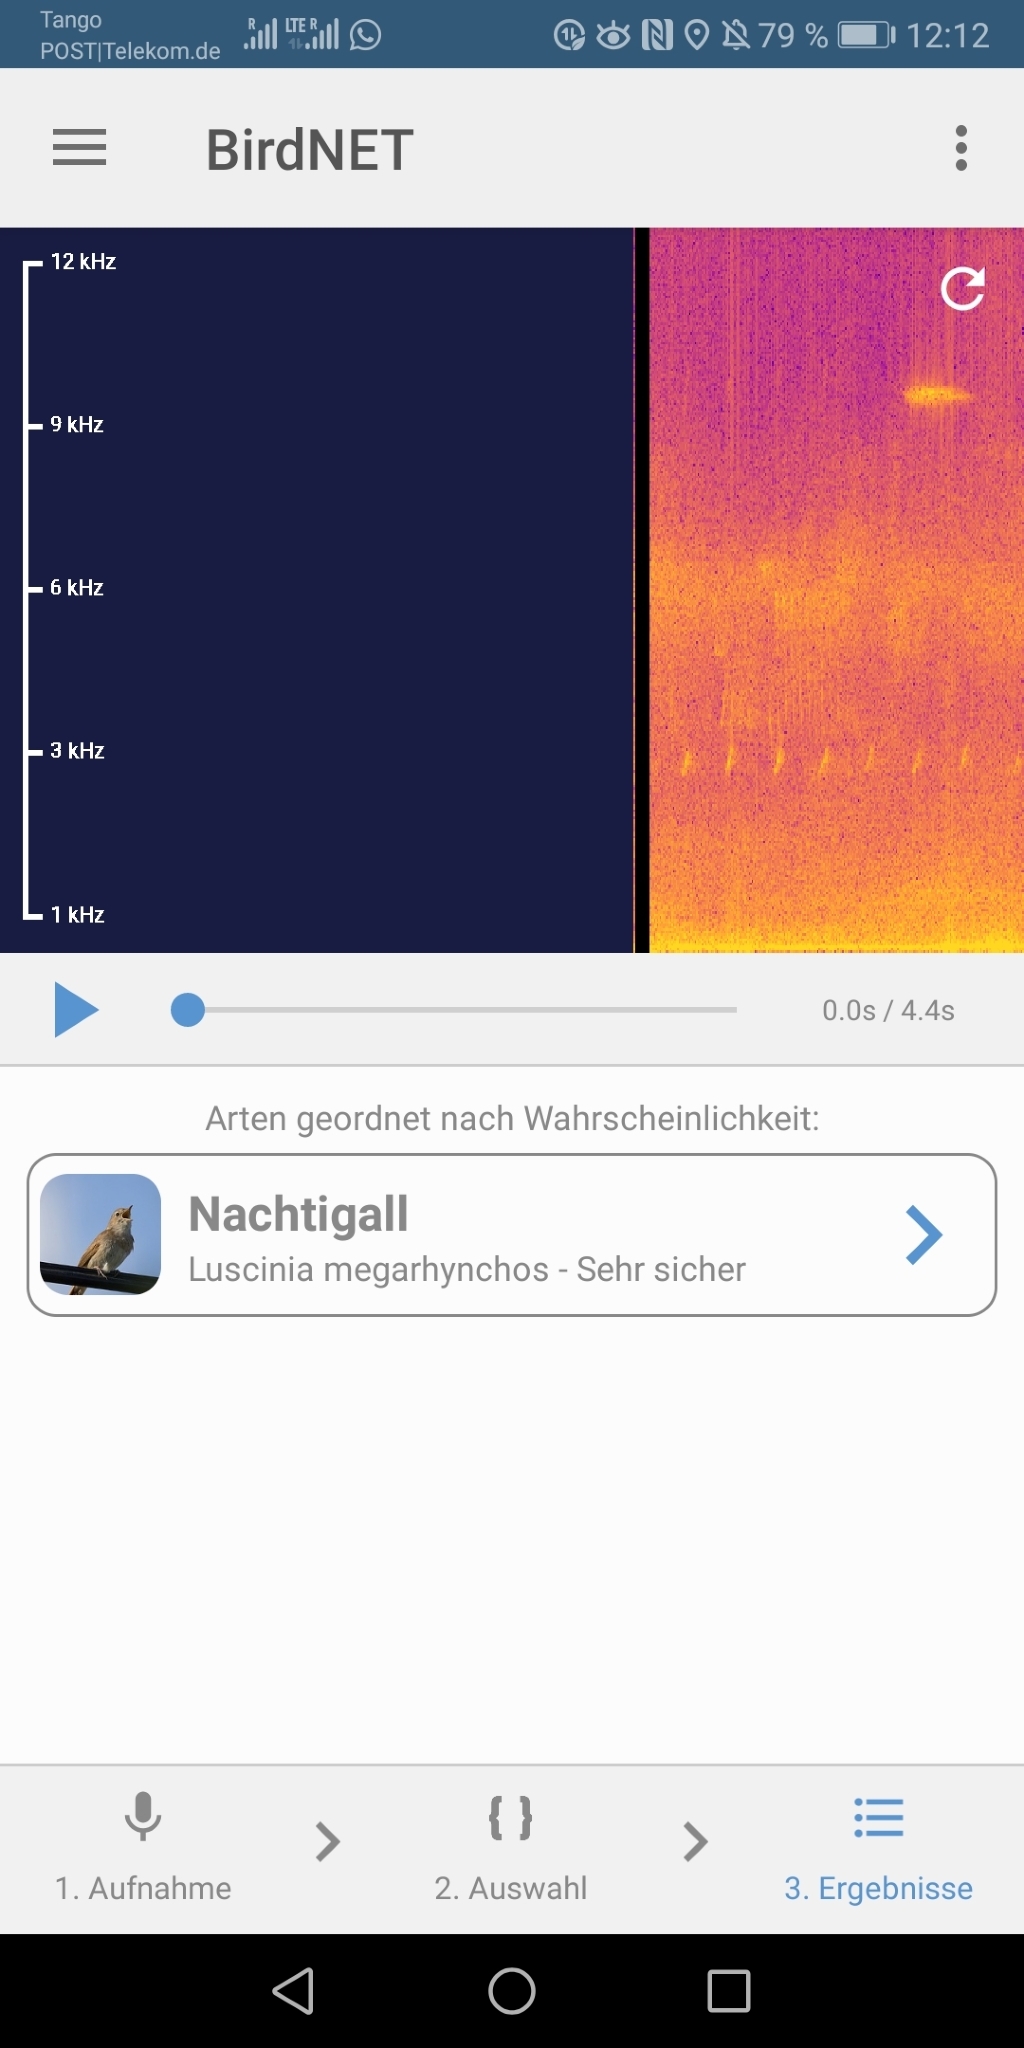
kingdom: Animalia
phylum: Chordata
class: Aves
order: Passeriformes
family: Muscicapidae
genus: Luscinia
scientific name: Luscinia megarhynchos
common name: Common nightingale
